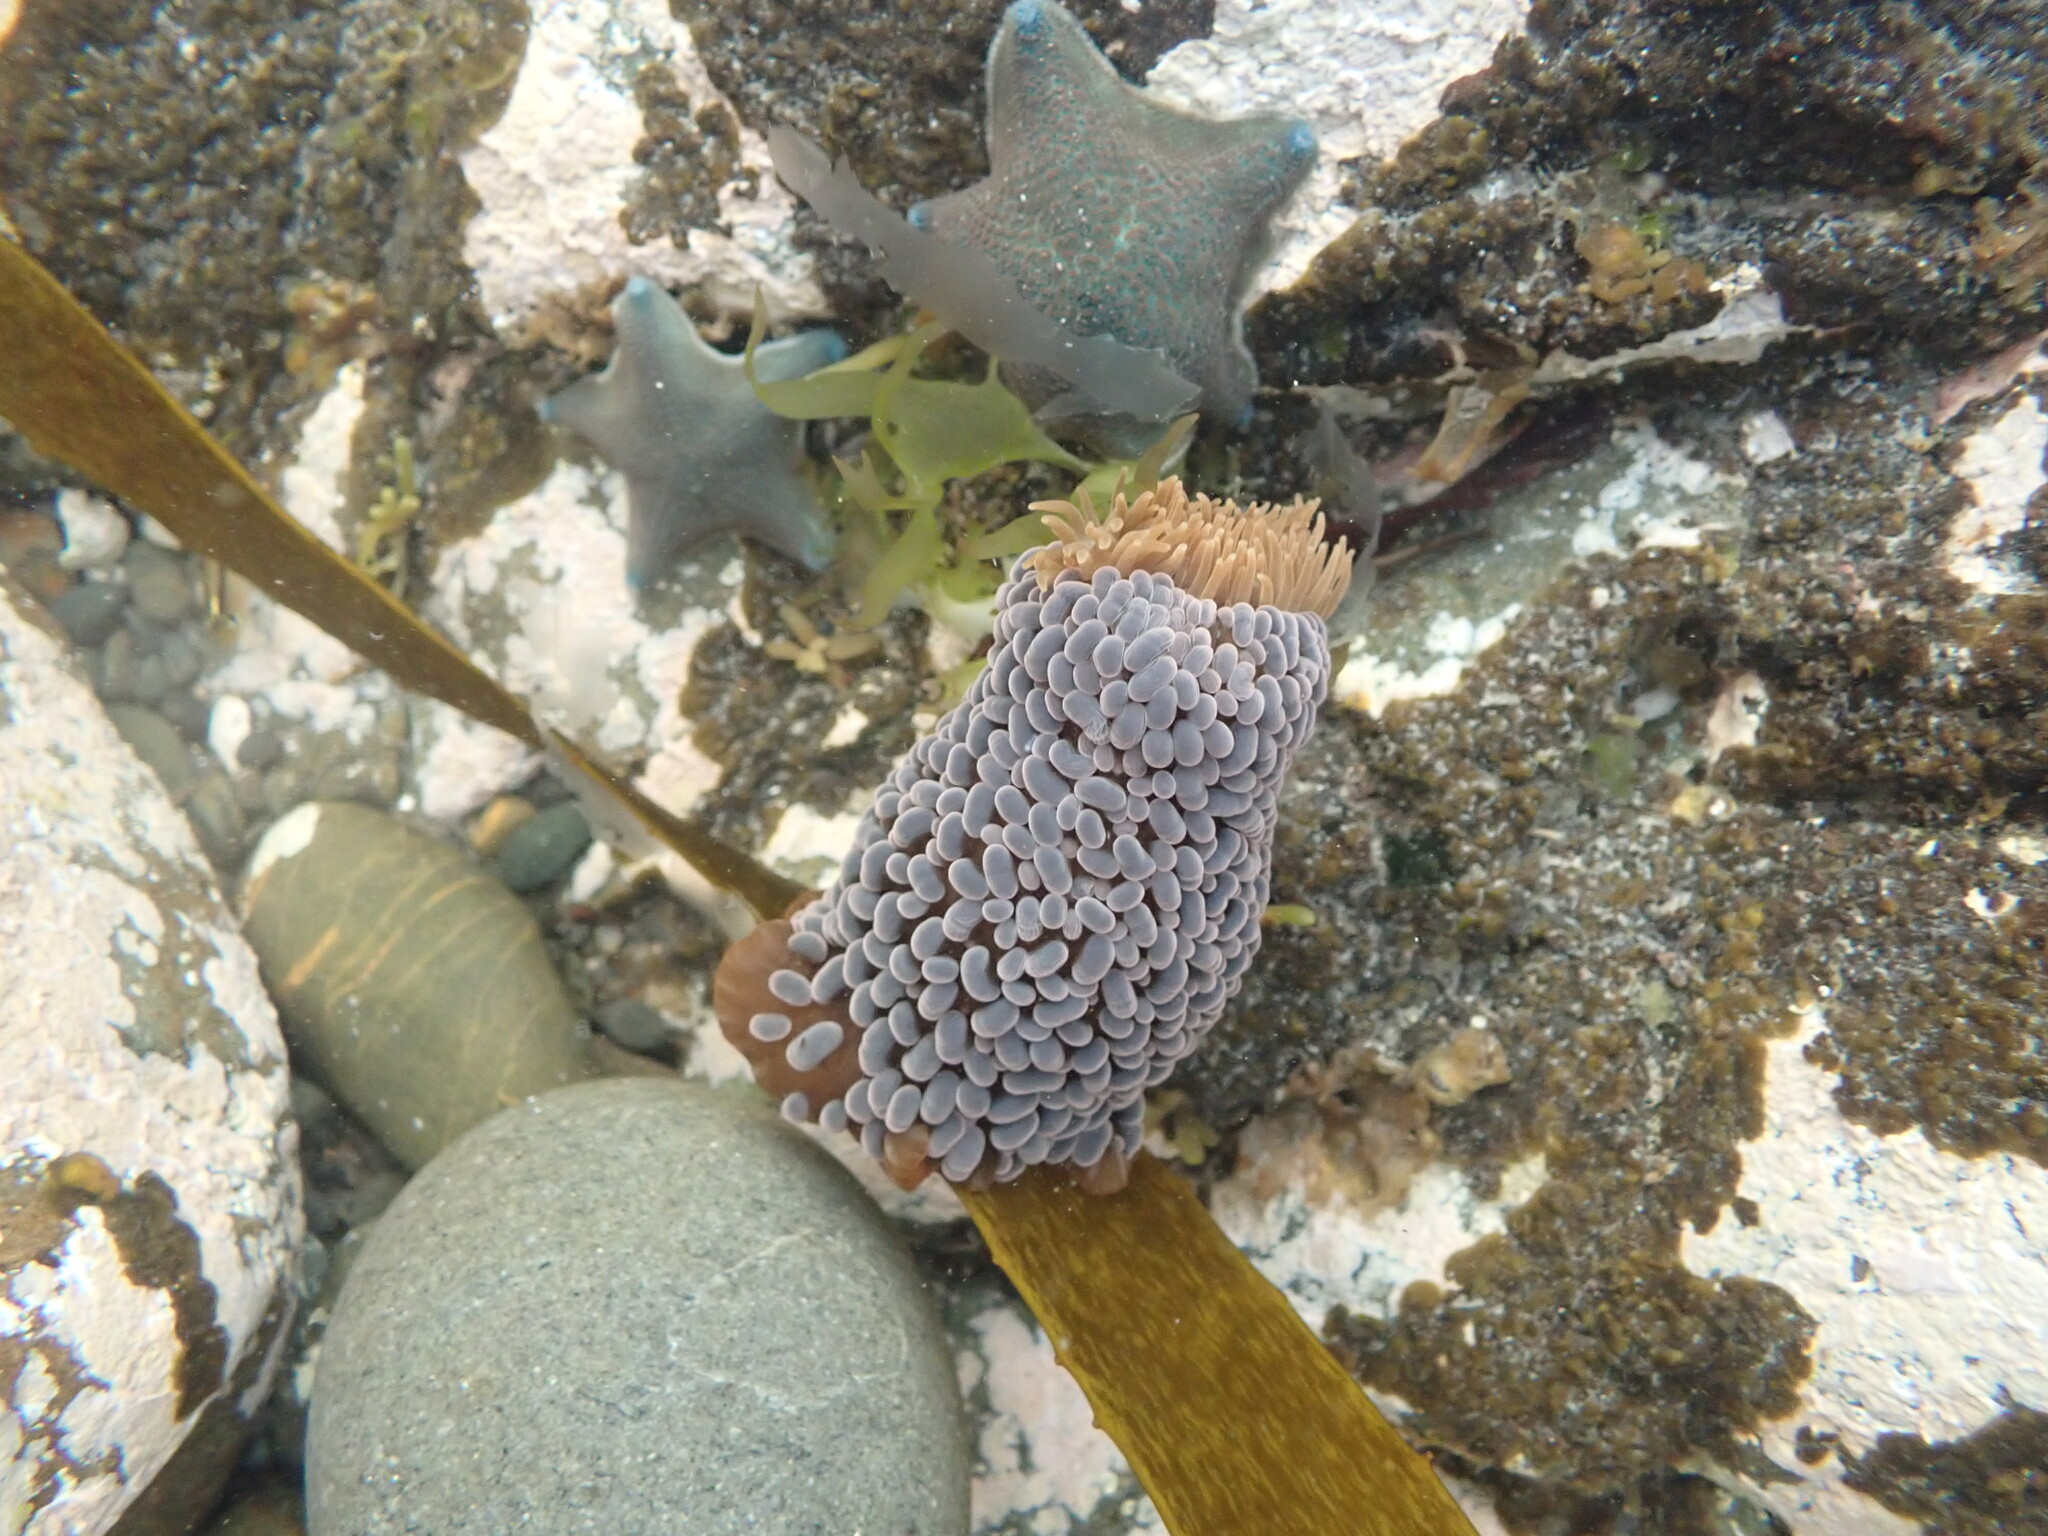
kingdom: Animalia
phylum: Cnidaria
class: Anthozoa
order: Actiniaria
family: Actiniidae
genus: Phlyctenactis
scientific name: Phlyctenactis tuberculosa
